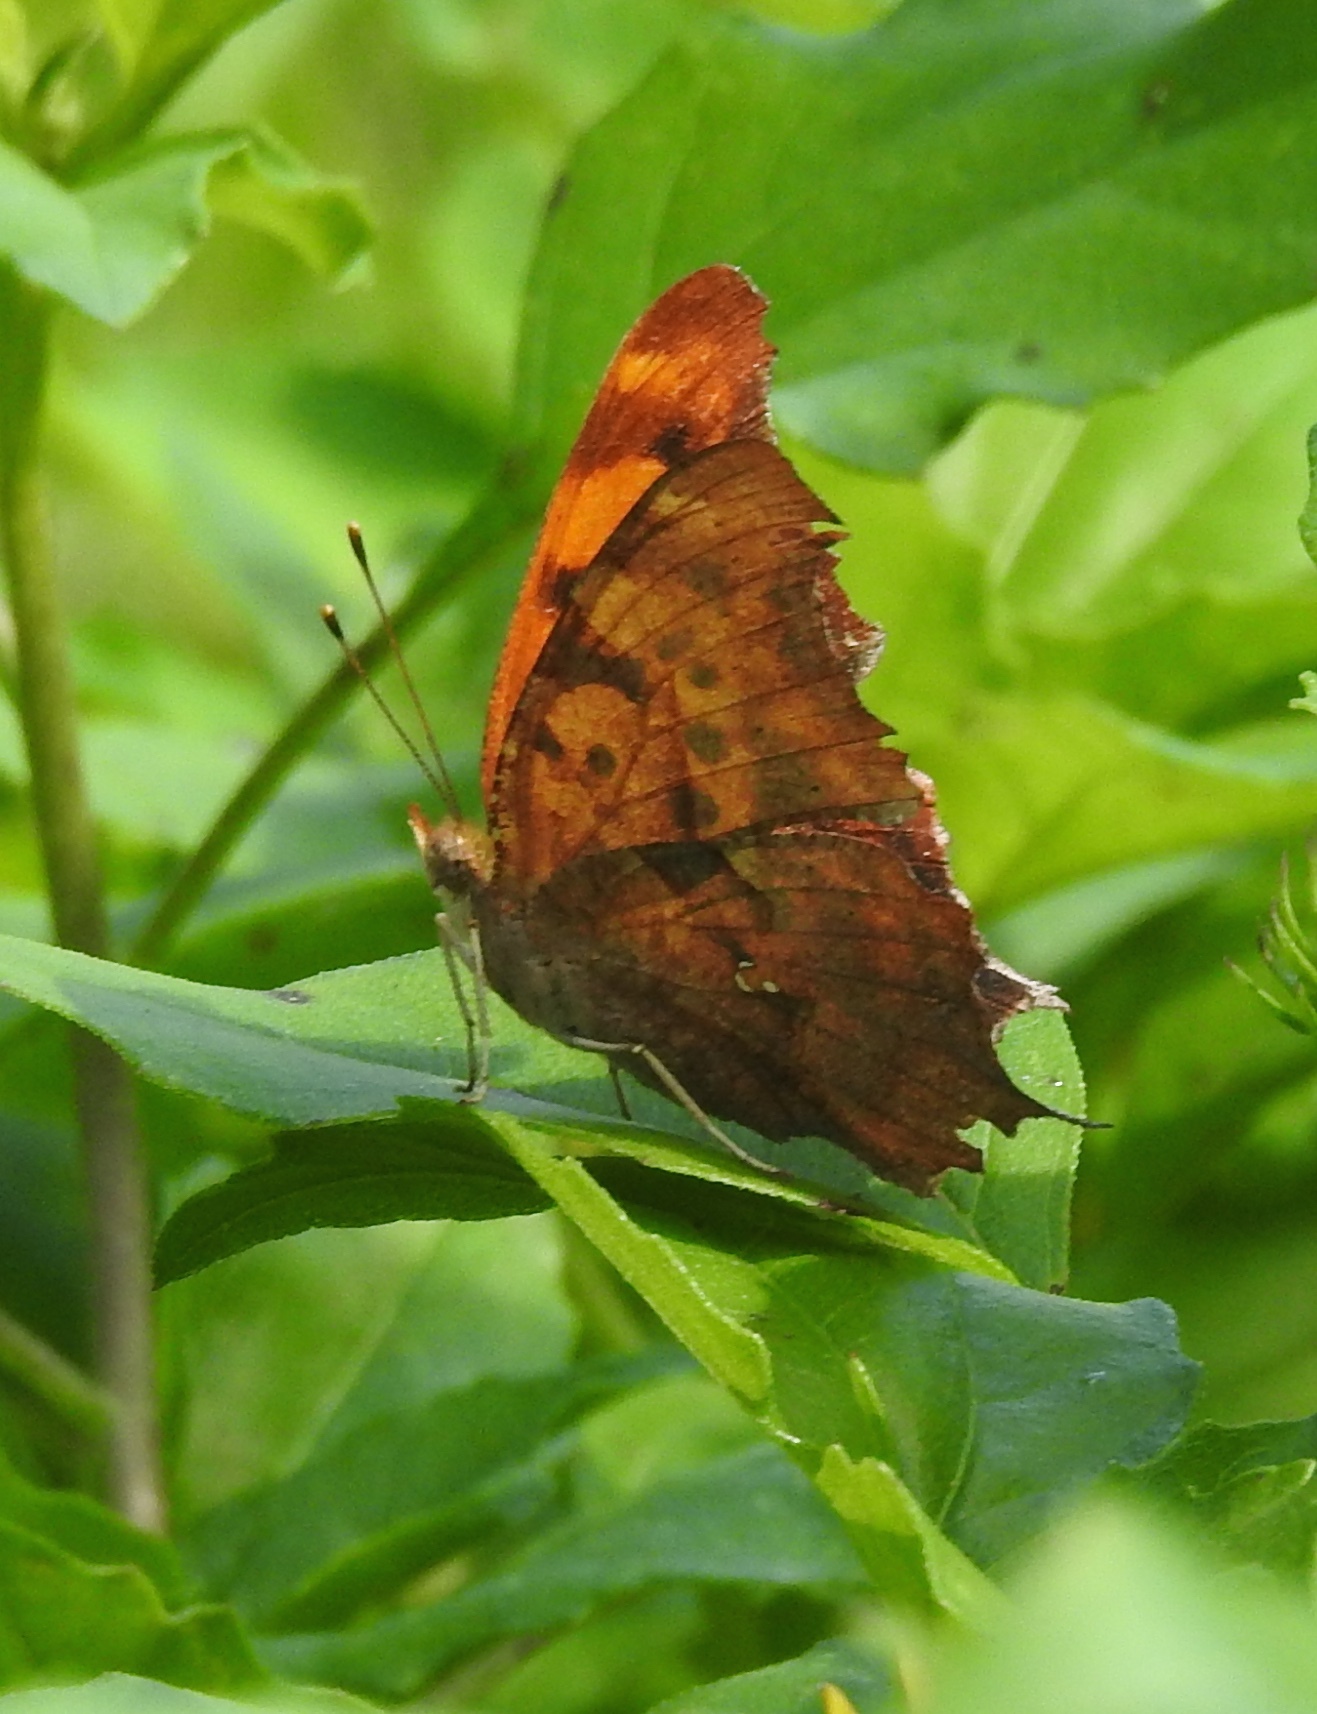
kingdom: Animalia
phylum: Arthropoda
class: Insecta
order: Lepidoptera
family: Nymphalidae
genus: Polygonia
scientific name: Polygonia interrogationis
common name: Question mark
